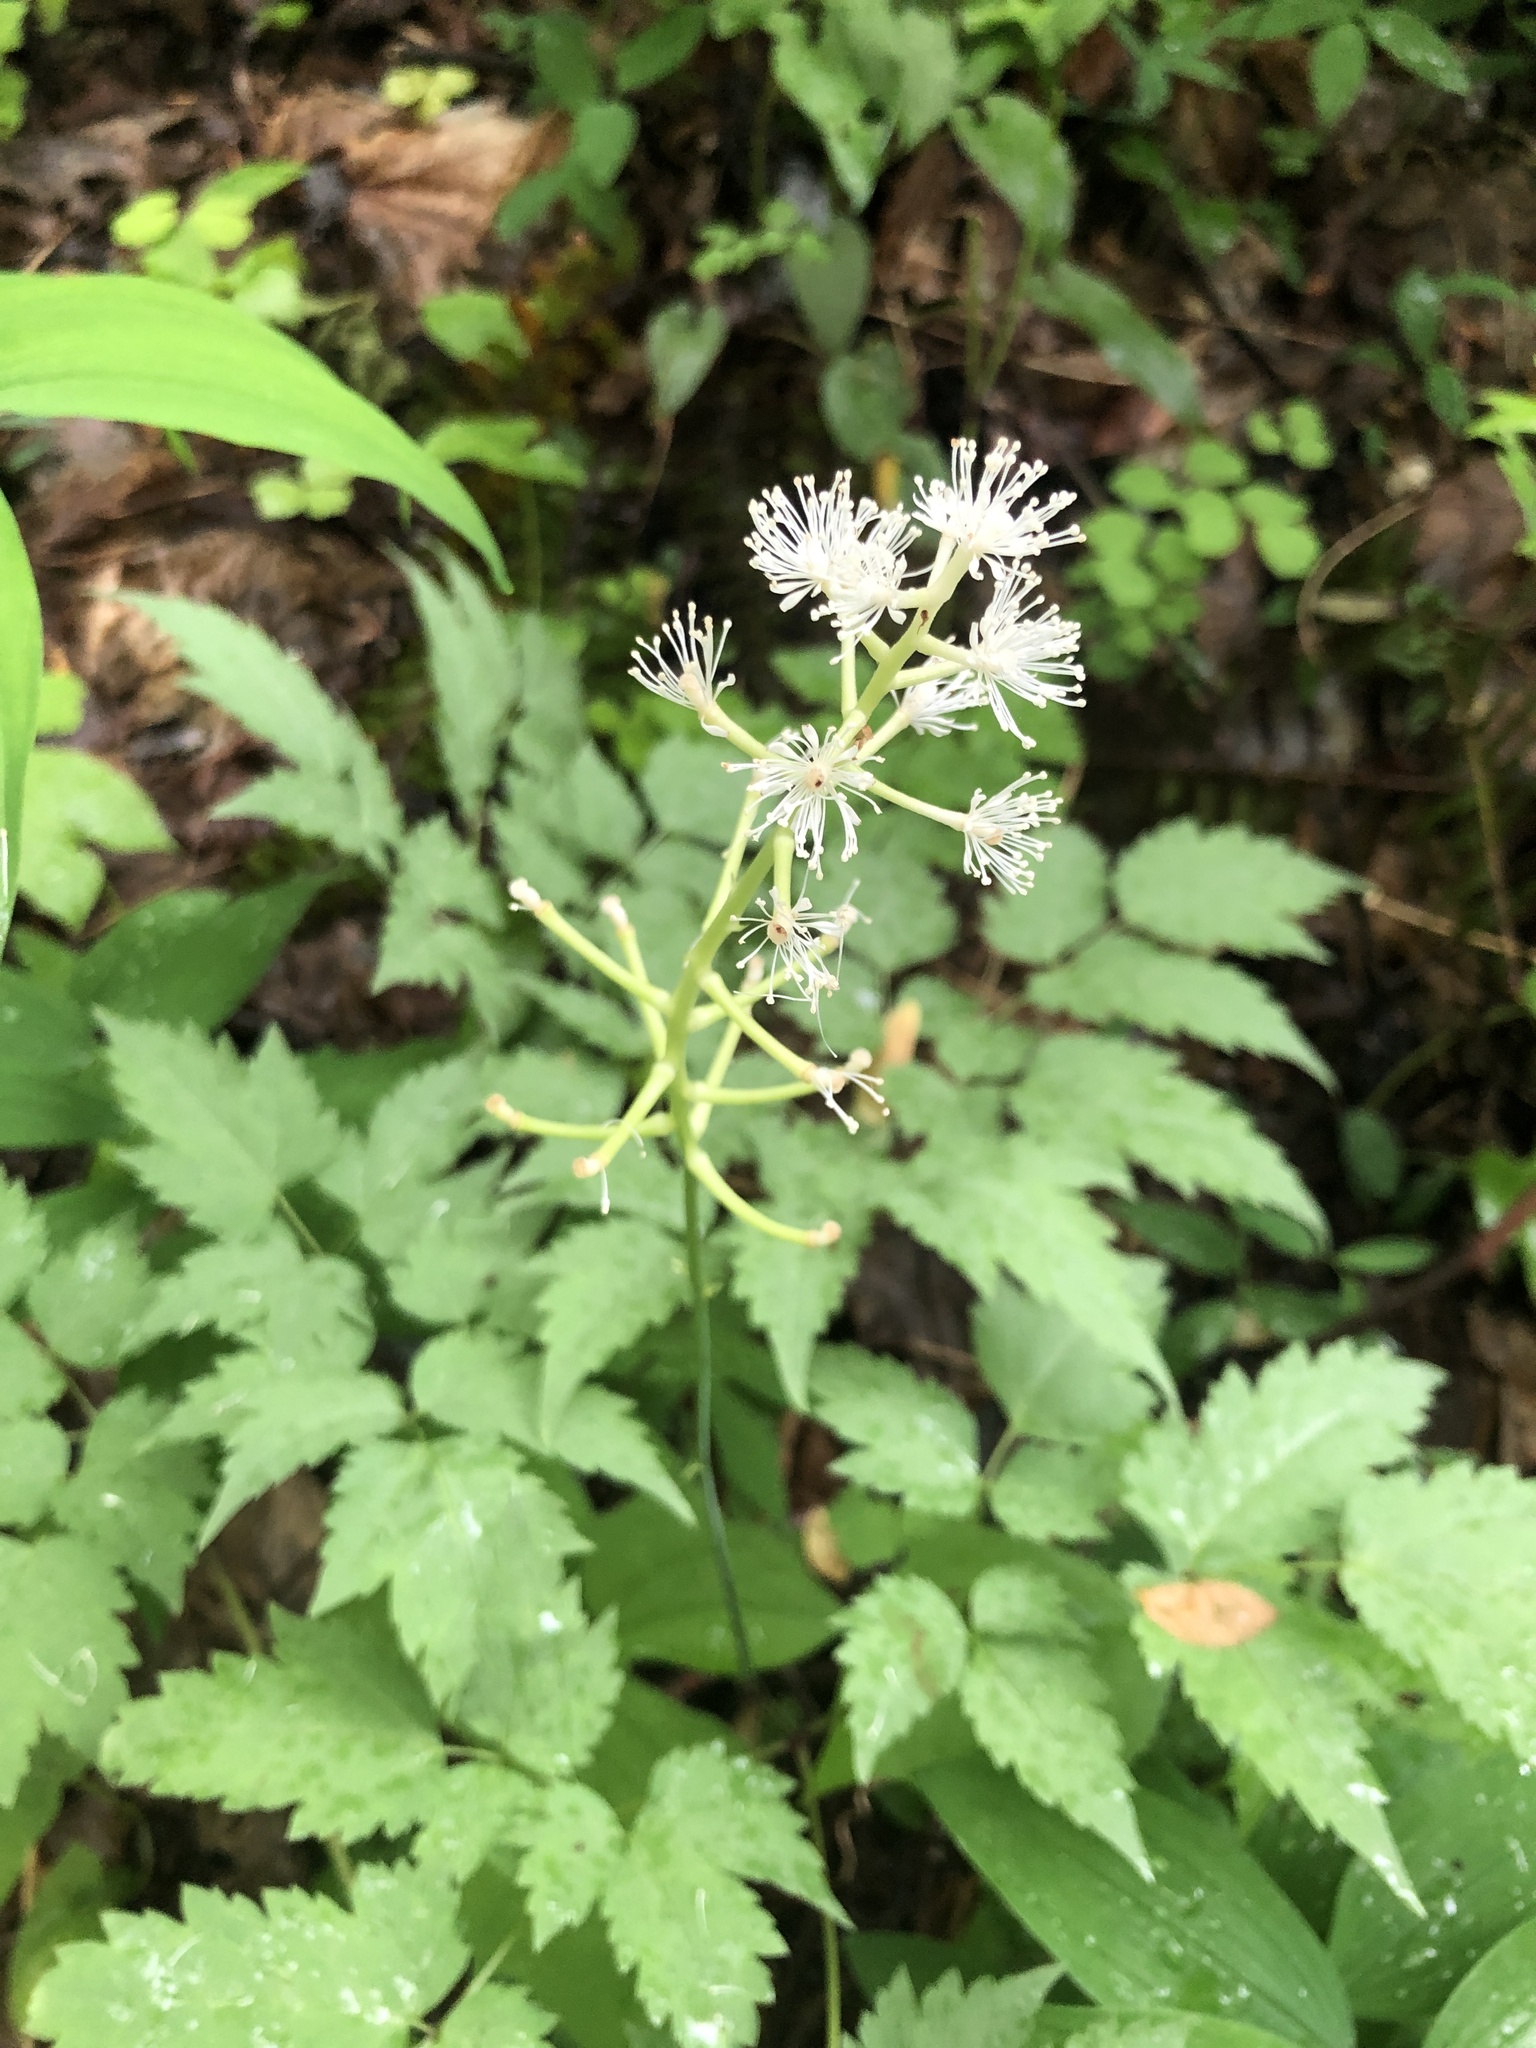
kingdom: Plantae
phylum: Tracheophyta
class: Magnoliopsida
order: Ranunculales
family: Ranunculaceae
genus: Actaea
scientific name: Actaea pachypoda
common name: Doll's-eyes
